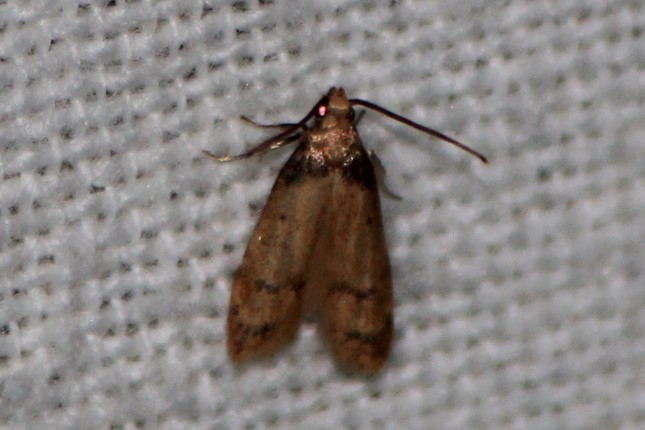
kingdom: Animalia
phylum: Arthropoda
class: Insecta
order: Lepidoptera
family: Autostichidae
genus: Gerdana
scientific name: Gerdana caritella
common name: Gerdana moth
